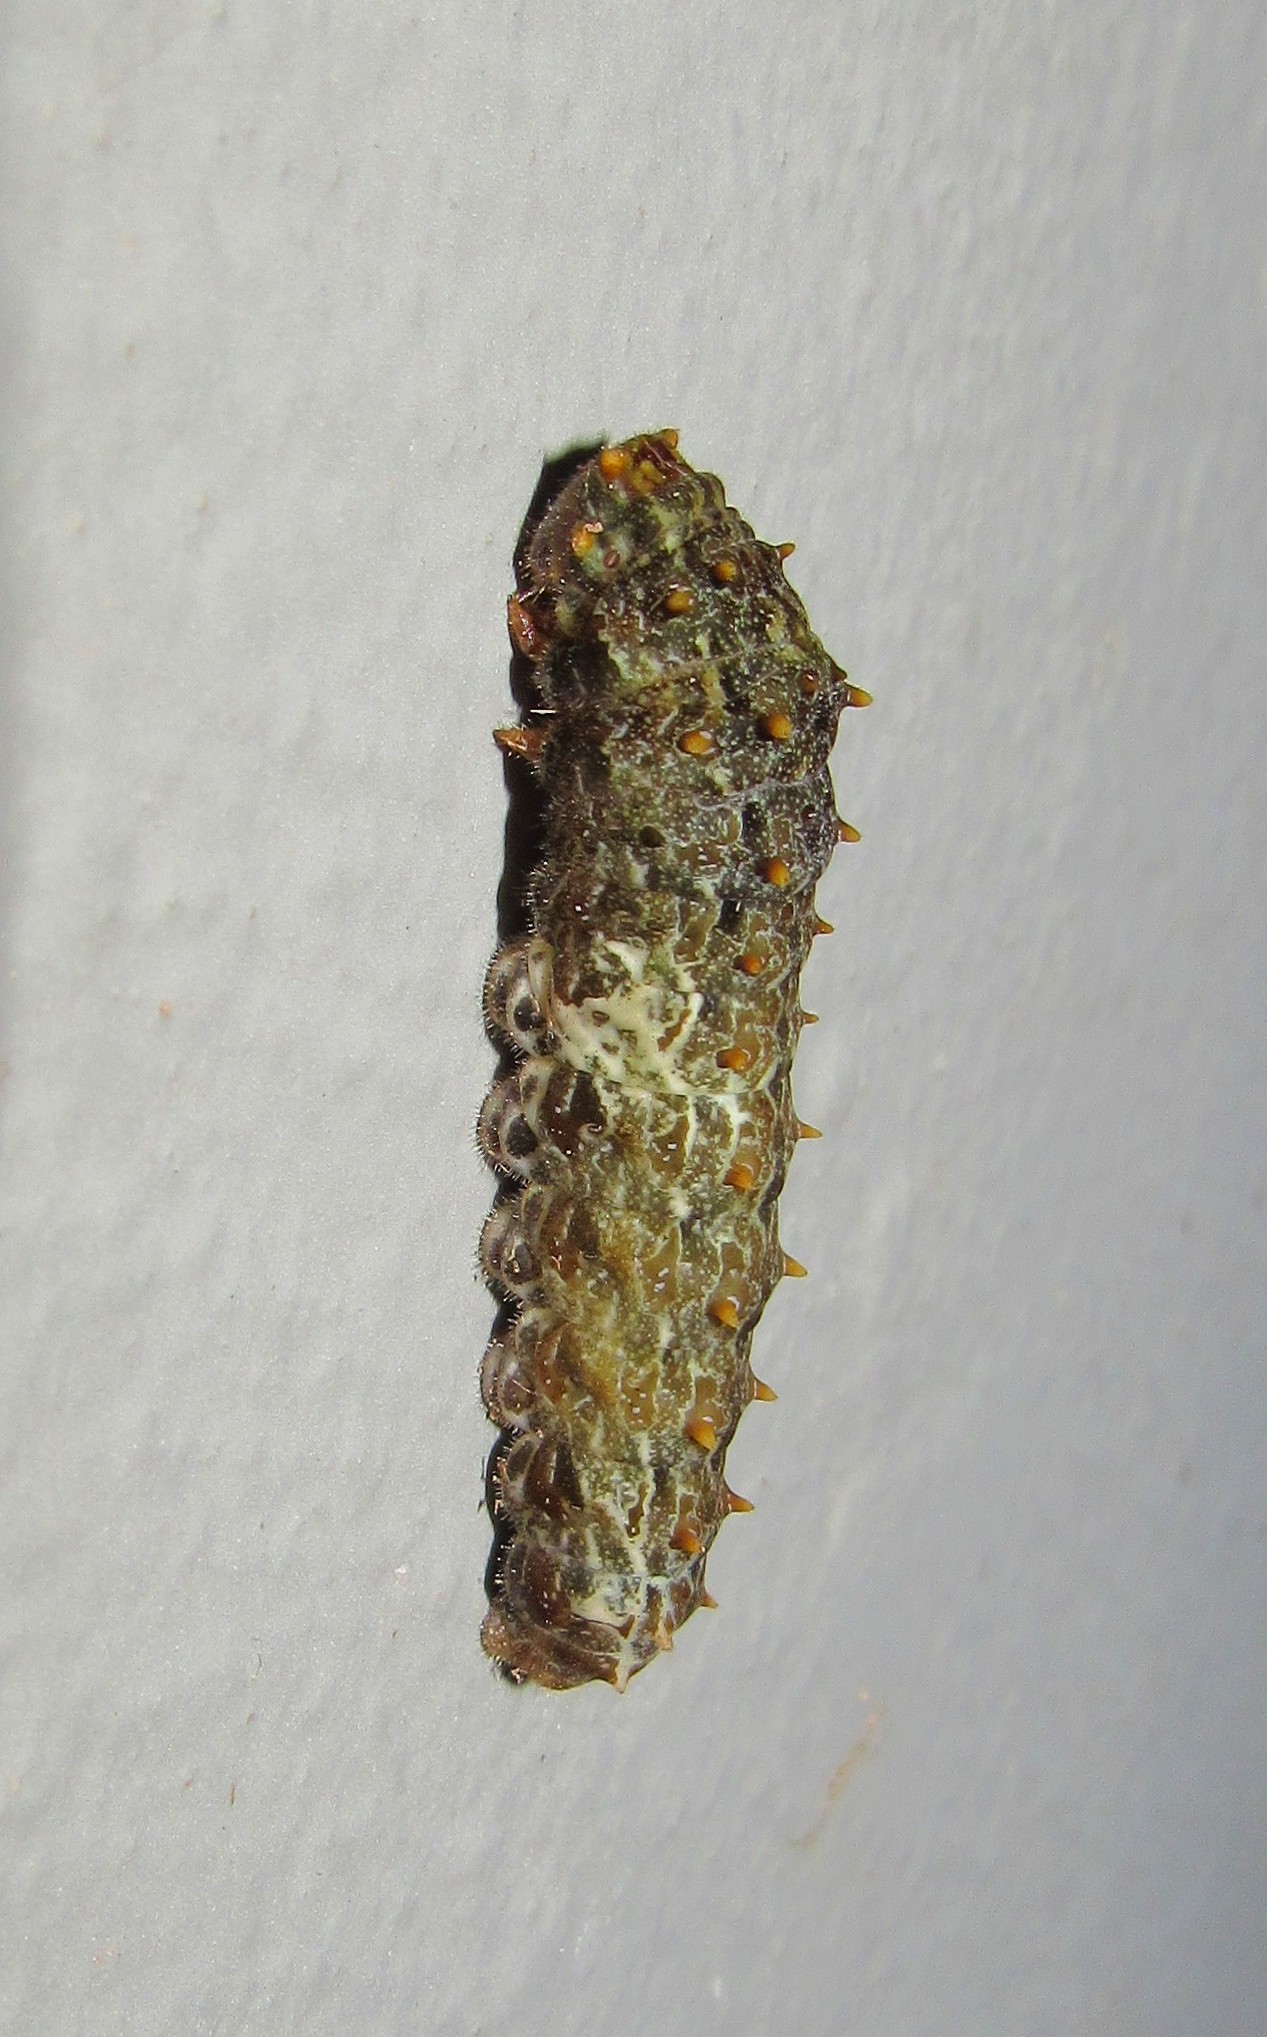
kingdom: Animalia
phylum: Arthropoda
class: Insecta
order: Lepidoptera
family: Papilionidae
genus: Papilio
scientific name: Papilio anchisiades
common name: Idaes swallowtail
